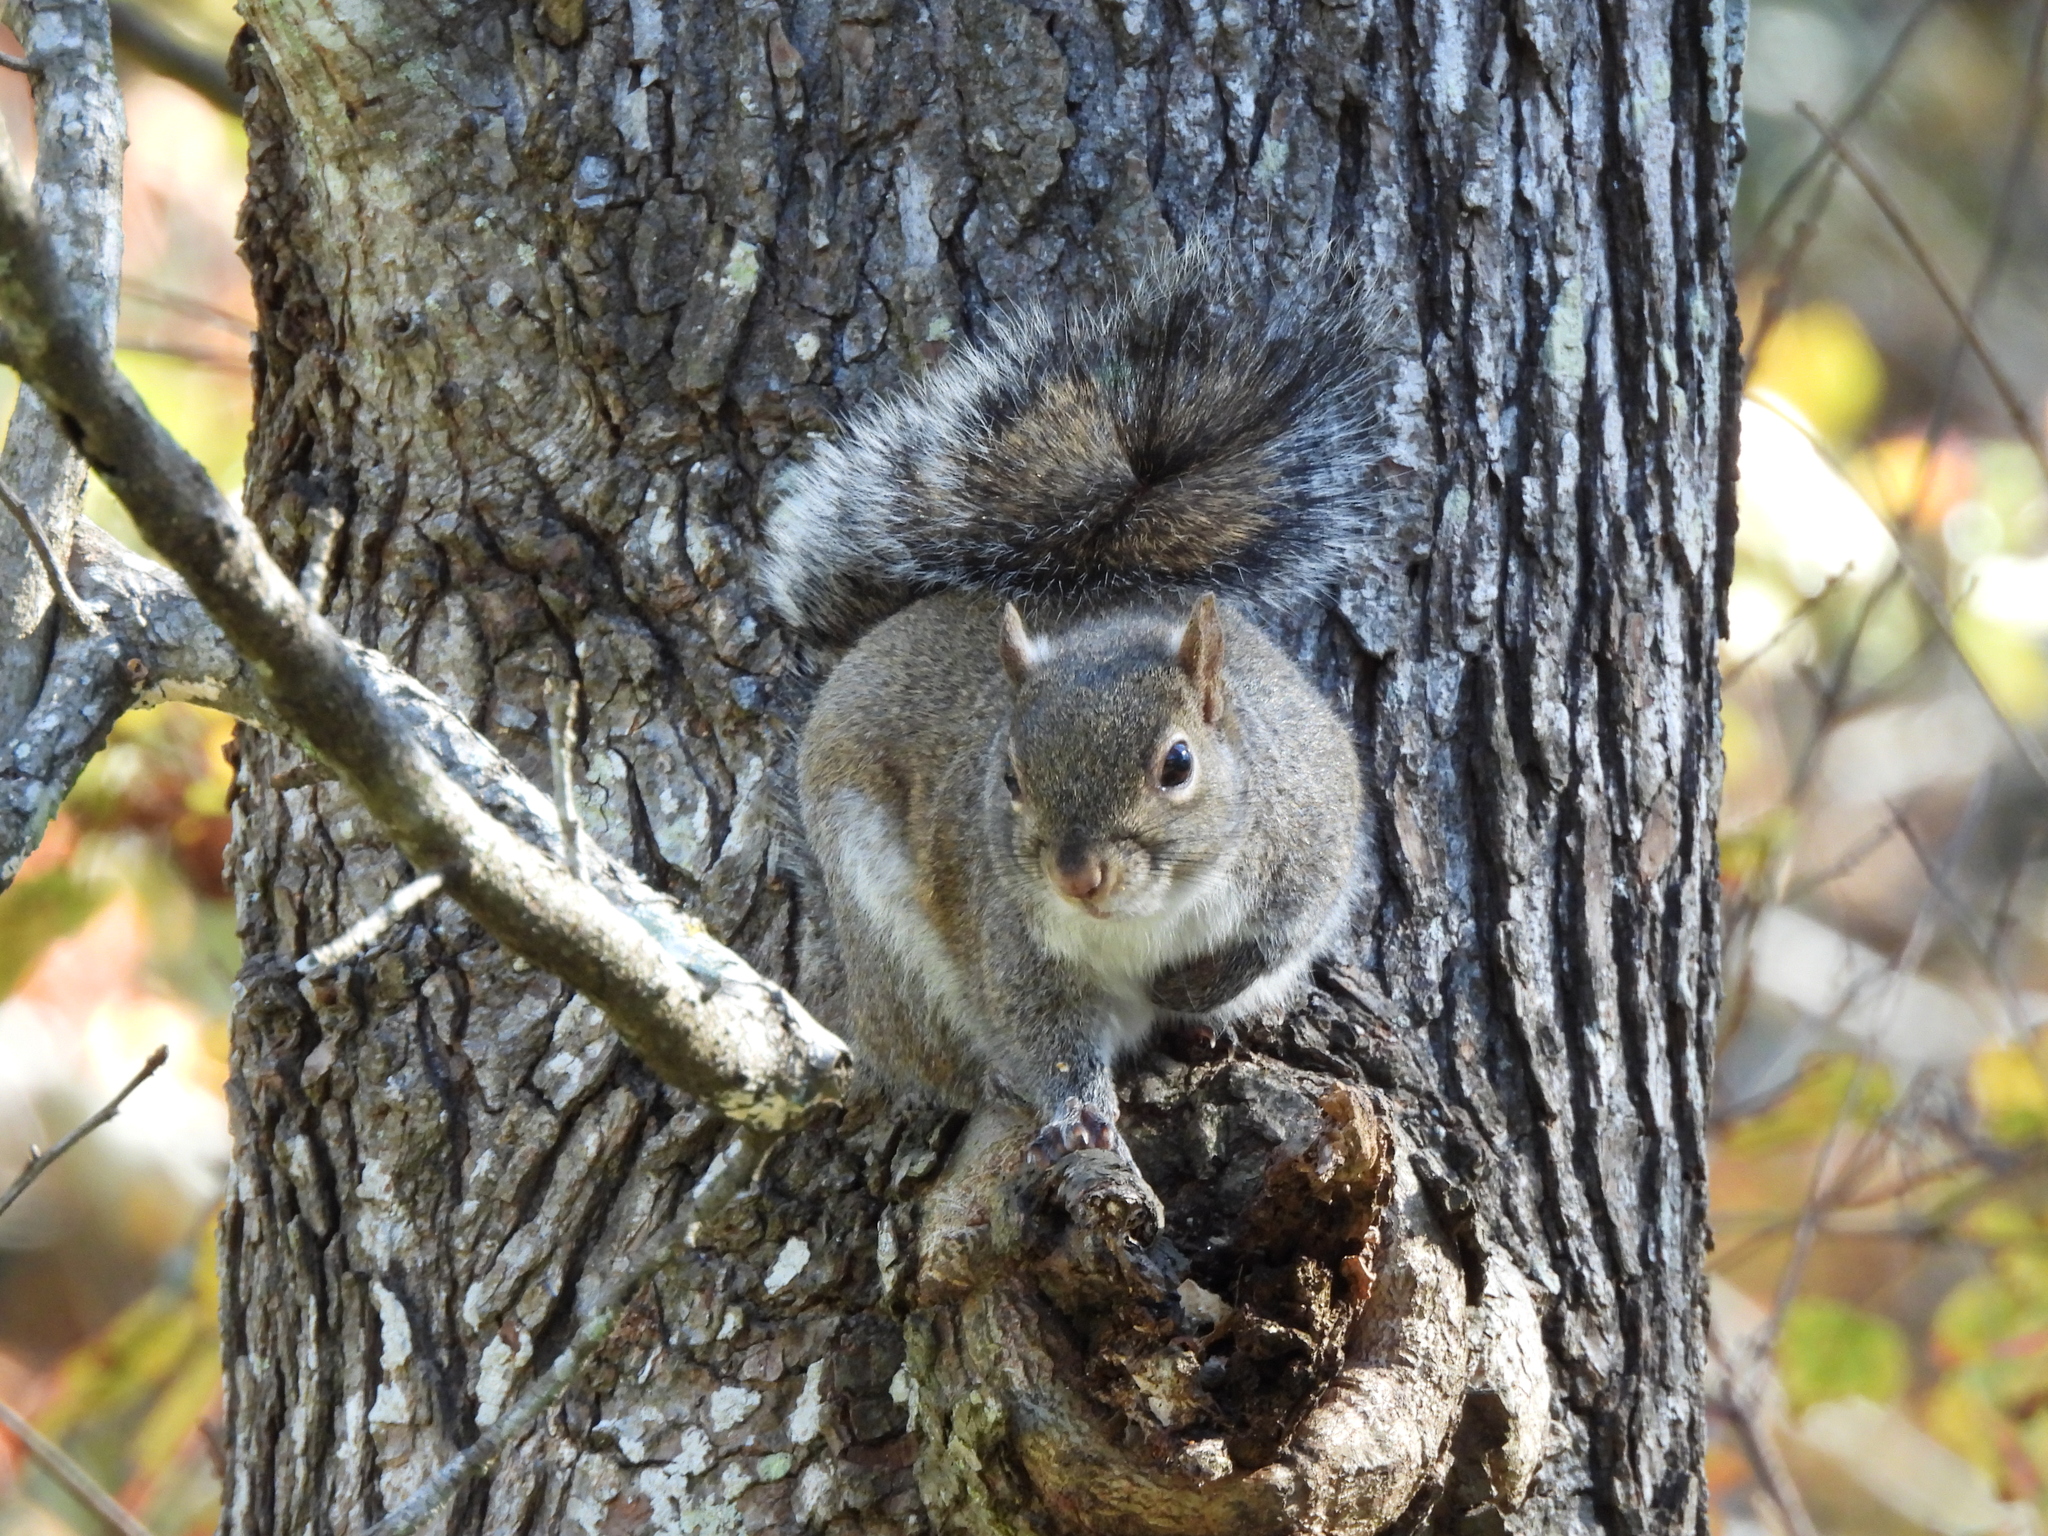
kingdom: Animalia
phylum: Chordata
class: Mammalia
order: Rodentia
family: Sciuridae
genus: Sciurus
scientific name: Sciurus carolinensis
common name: Eastern gray squirrel
